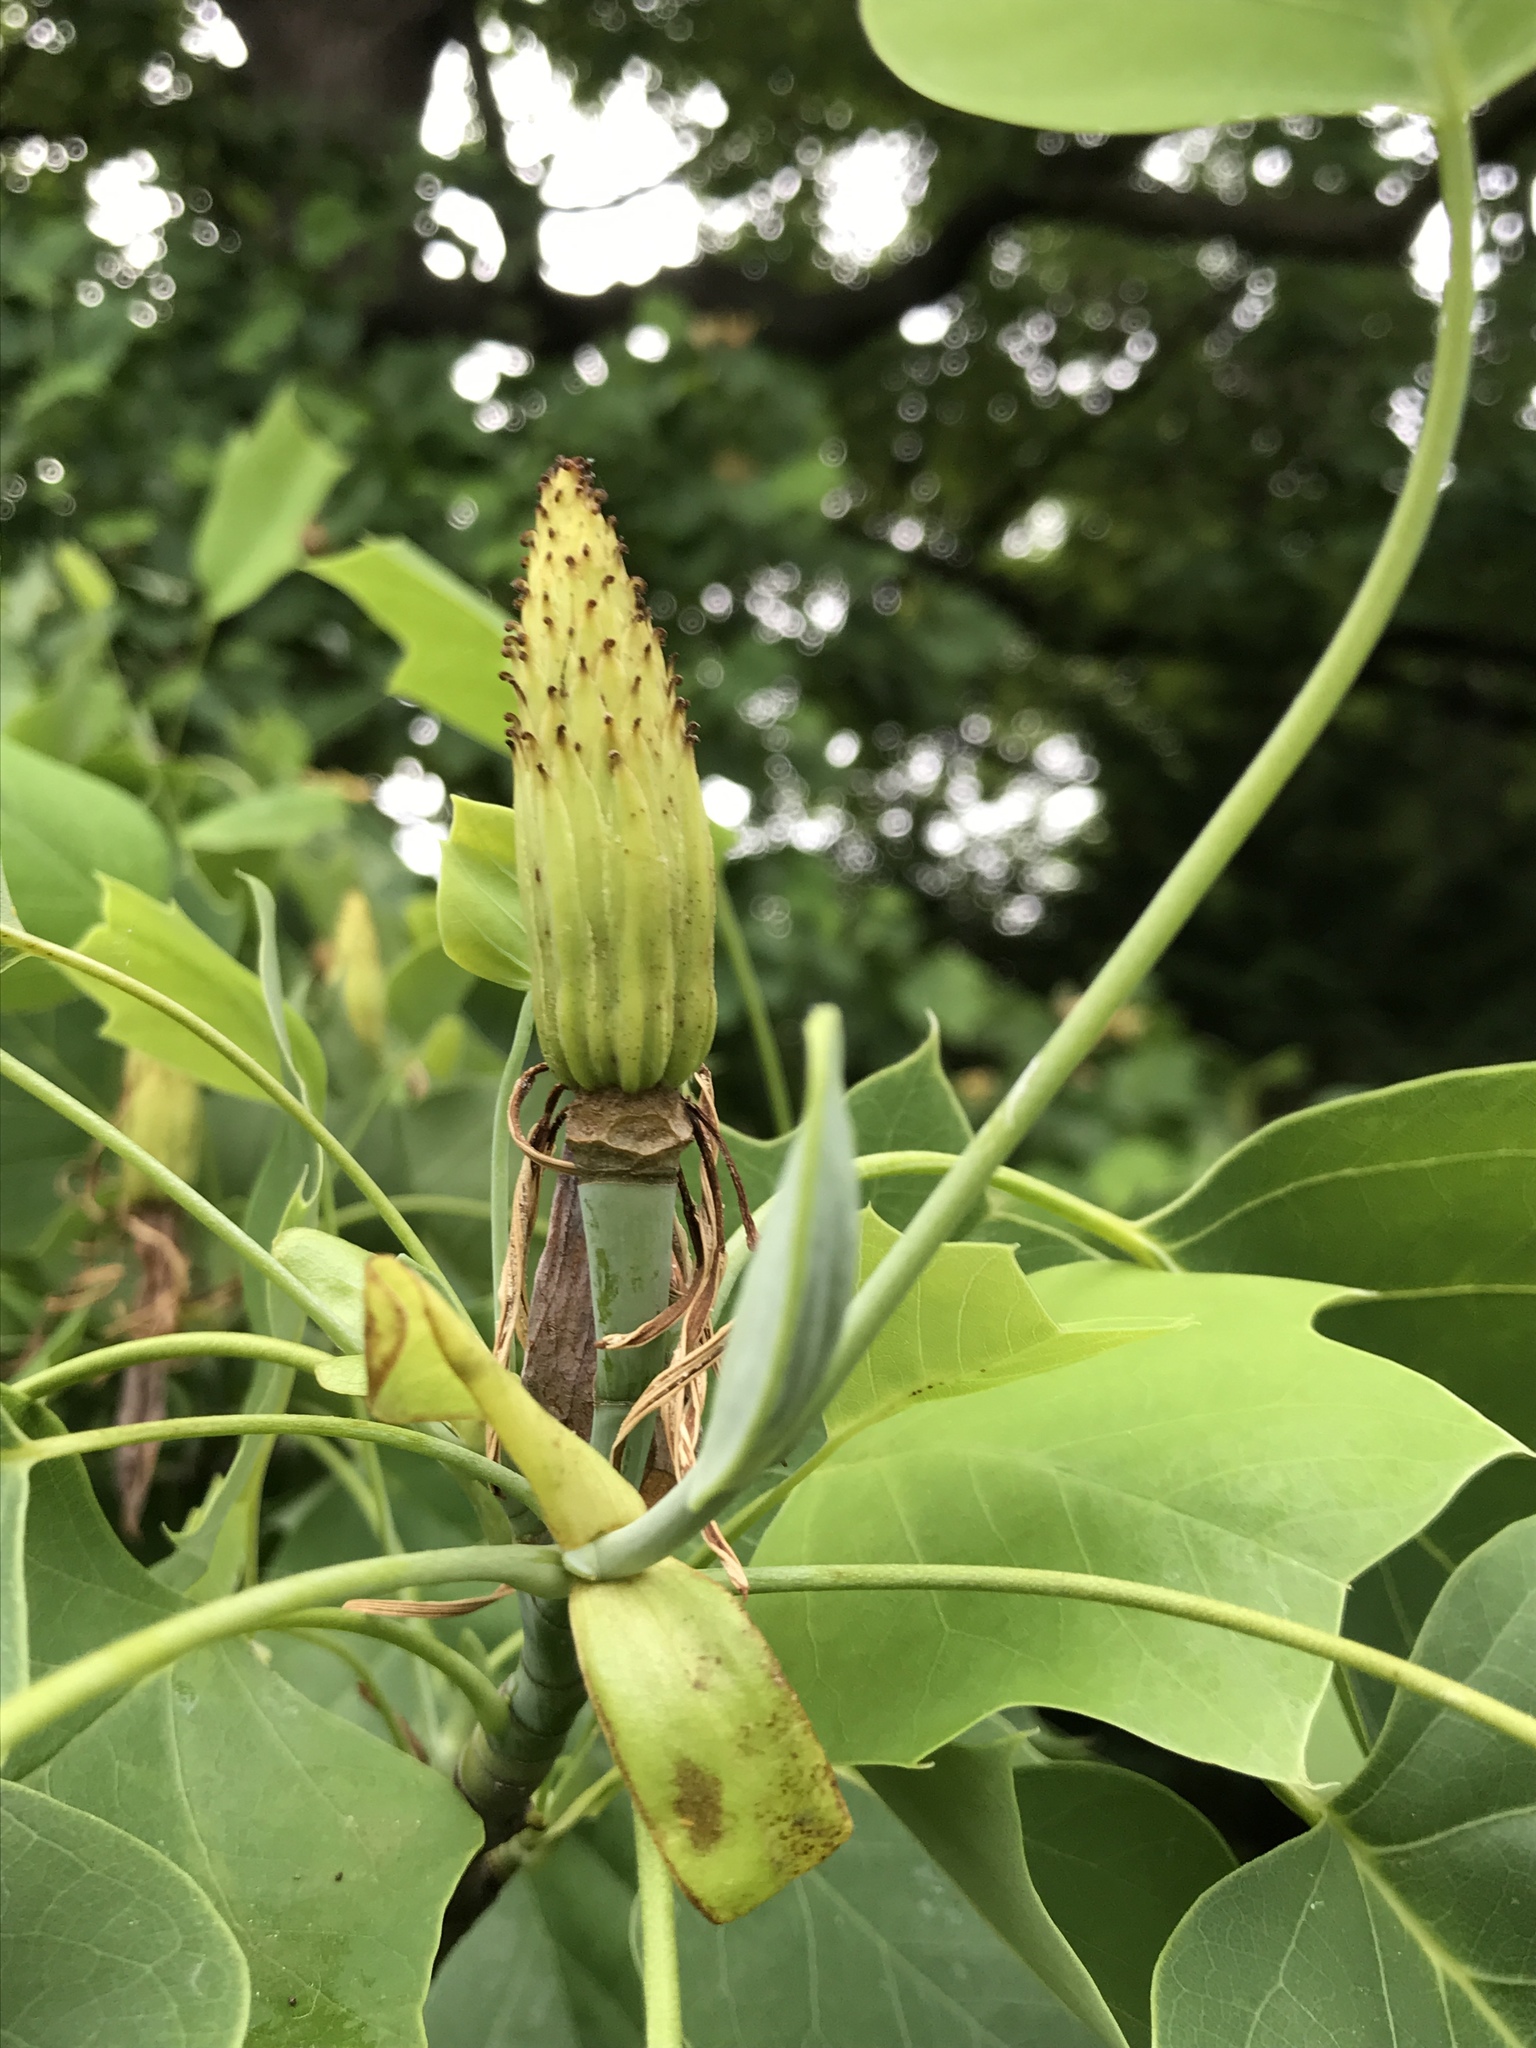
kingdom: Plantae
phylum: Tracheophyta
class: Magnoliopsida
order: Magnoliales
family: Magnoliaceae
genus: Liriodendron
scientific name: Liriodendron tulipifera
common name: Tulip tree
